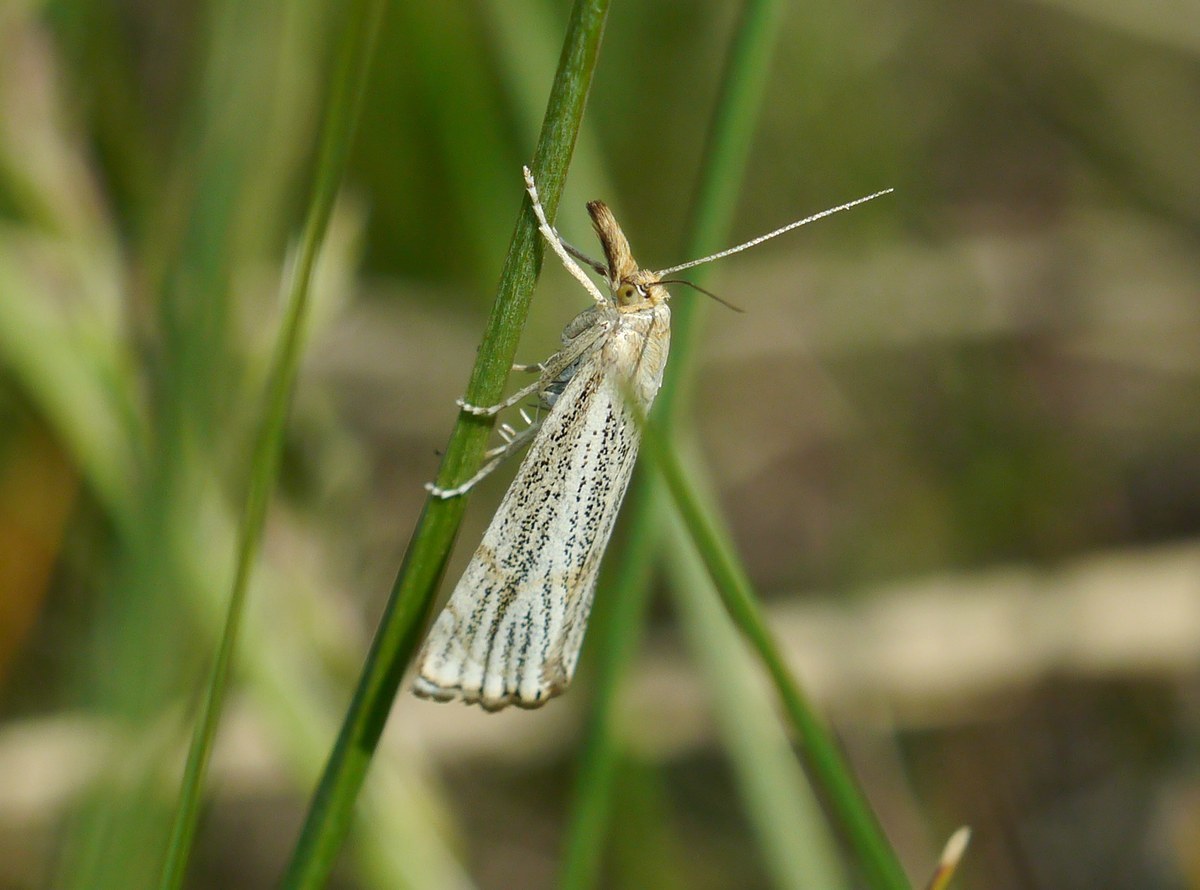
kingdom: Animalia
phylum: Arthropoda
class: Insecta
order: Lepidoptera
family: Crambidae
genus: Thisanotia
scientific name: Thisanotia chrysonuchella
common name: Powdered grass-veneer
